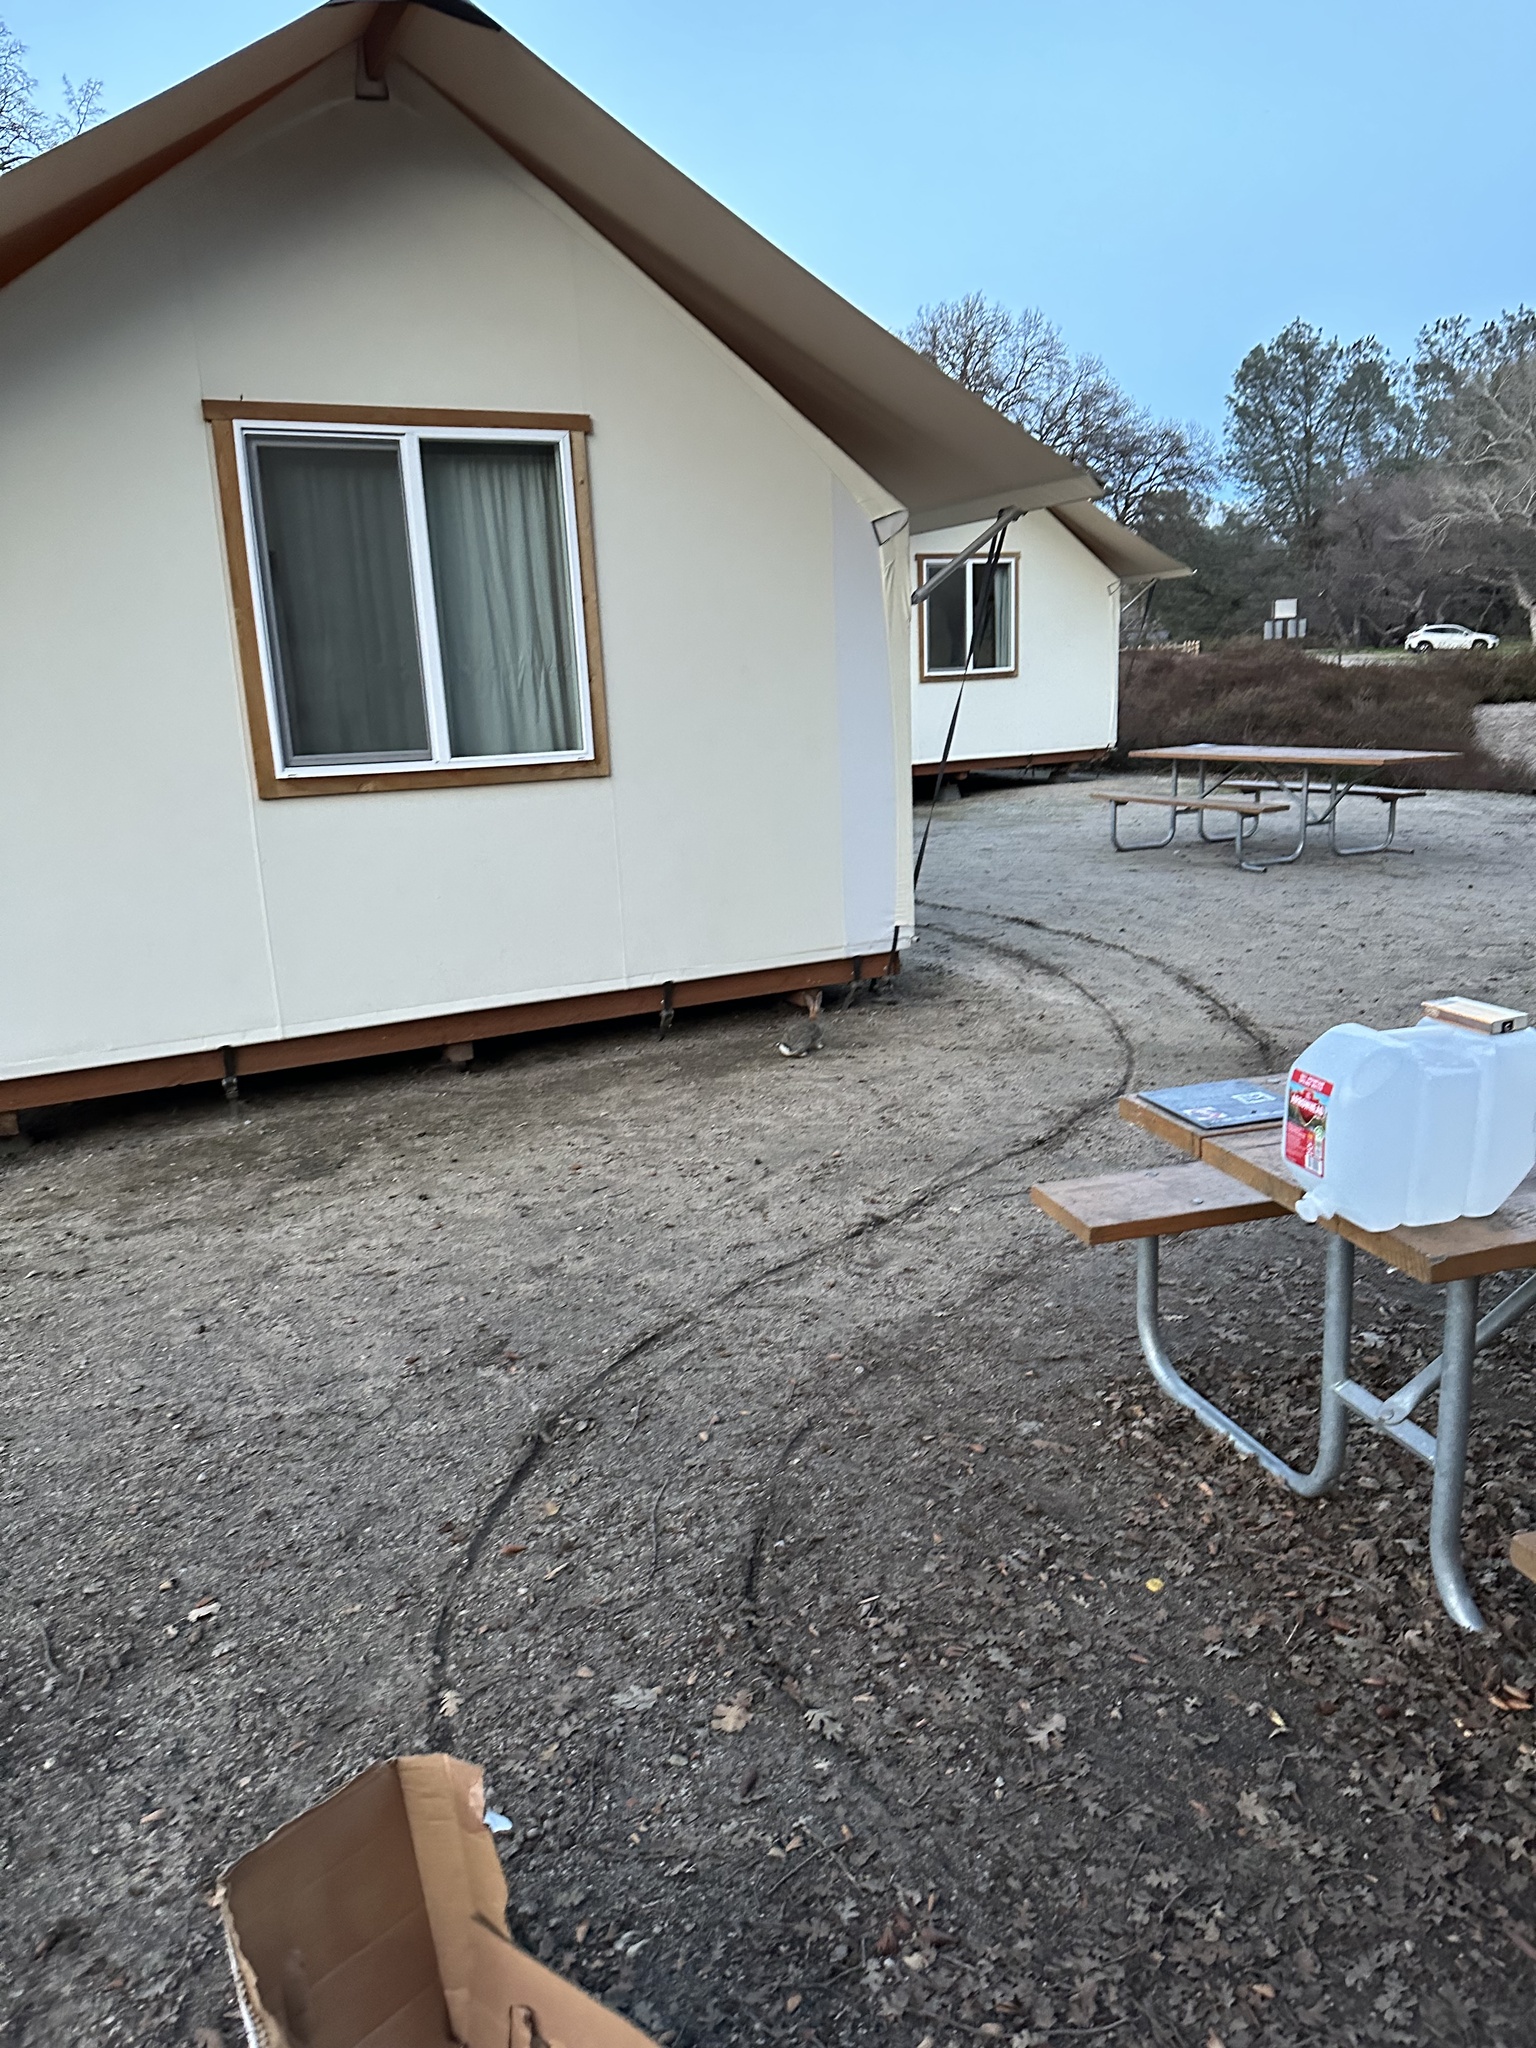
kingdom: Animalia
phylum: Chordata
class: Mammalia
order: Lagomorpha
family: Leporidae
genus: Sylvilagus
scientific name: Sylvilagus audubonii
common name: Desert cottontail
